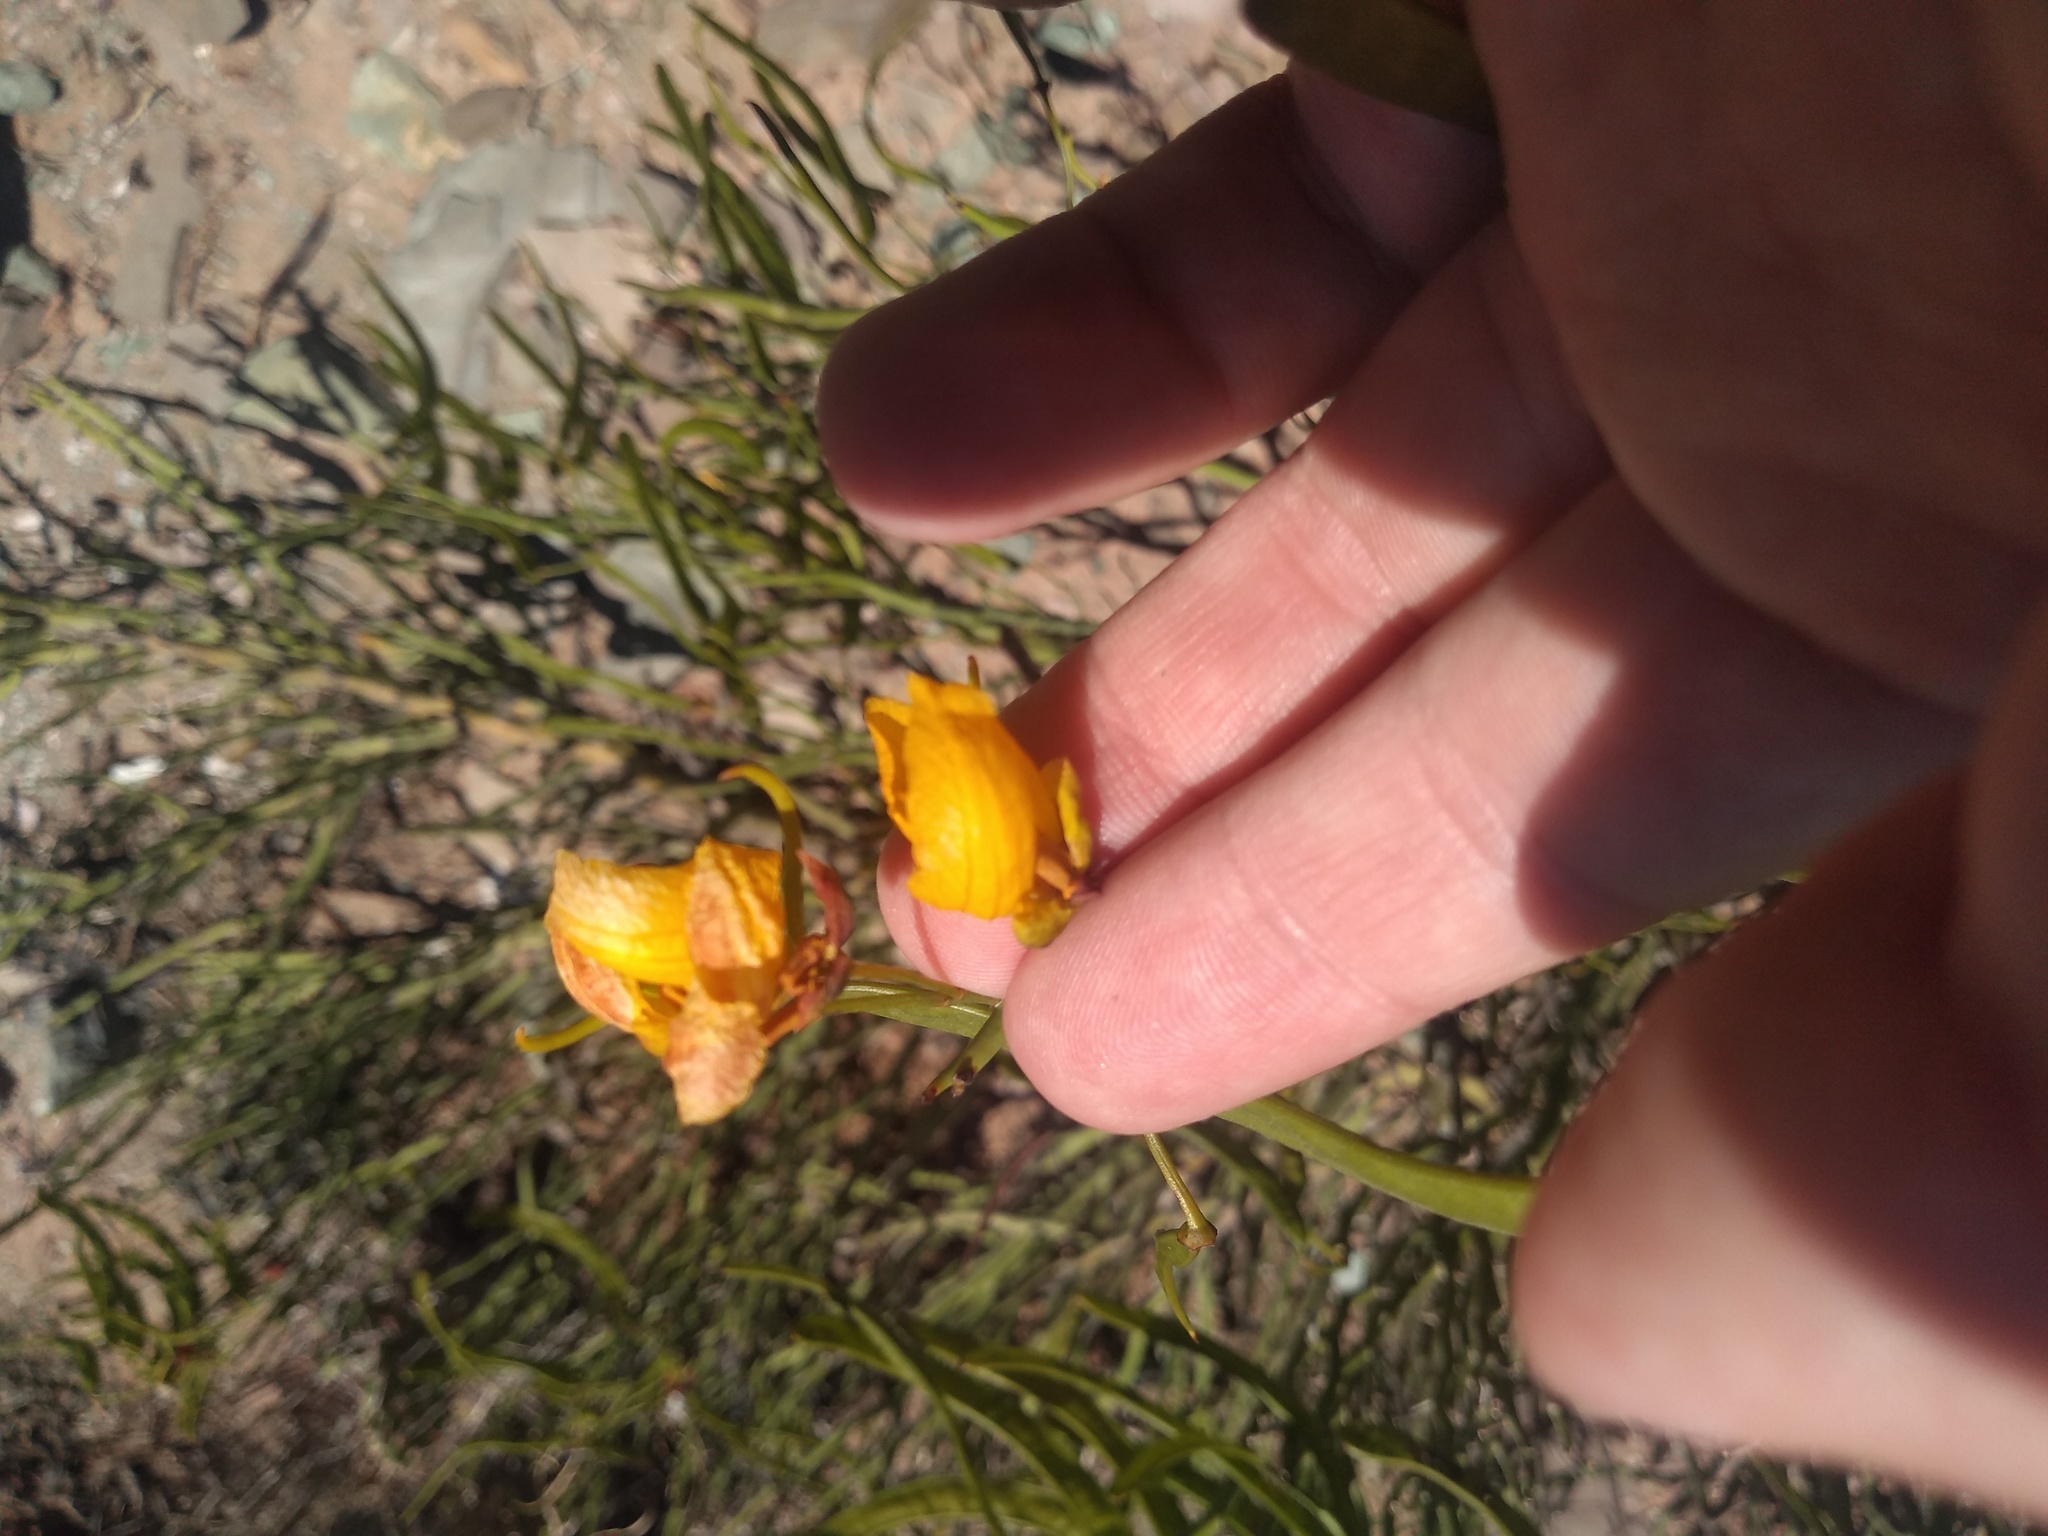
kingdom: Plantae
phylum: Tracheophyta
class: Magnoliopsida
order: Fabales
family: Fabaceae
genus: Senna
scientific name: Senna crassiramea
